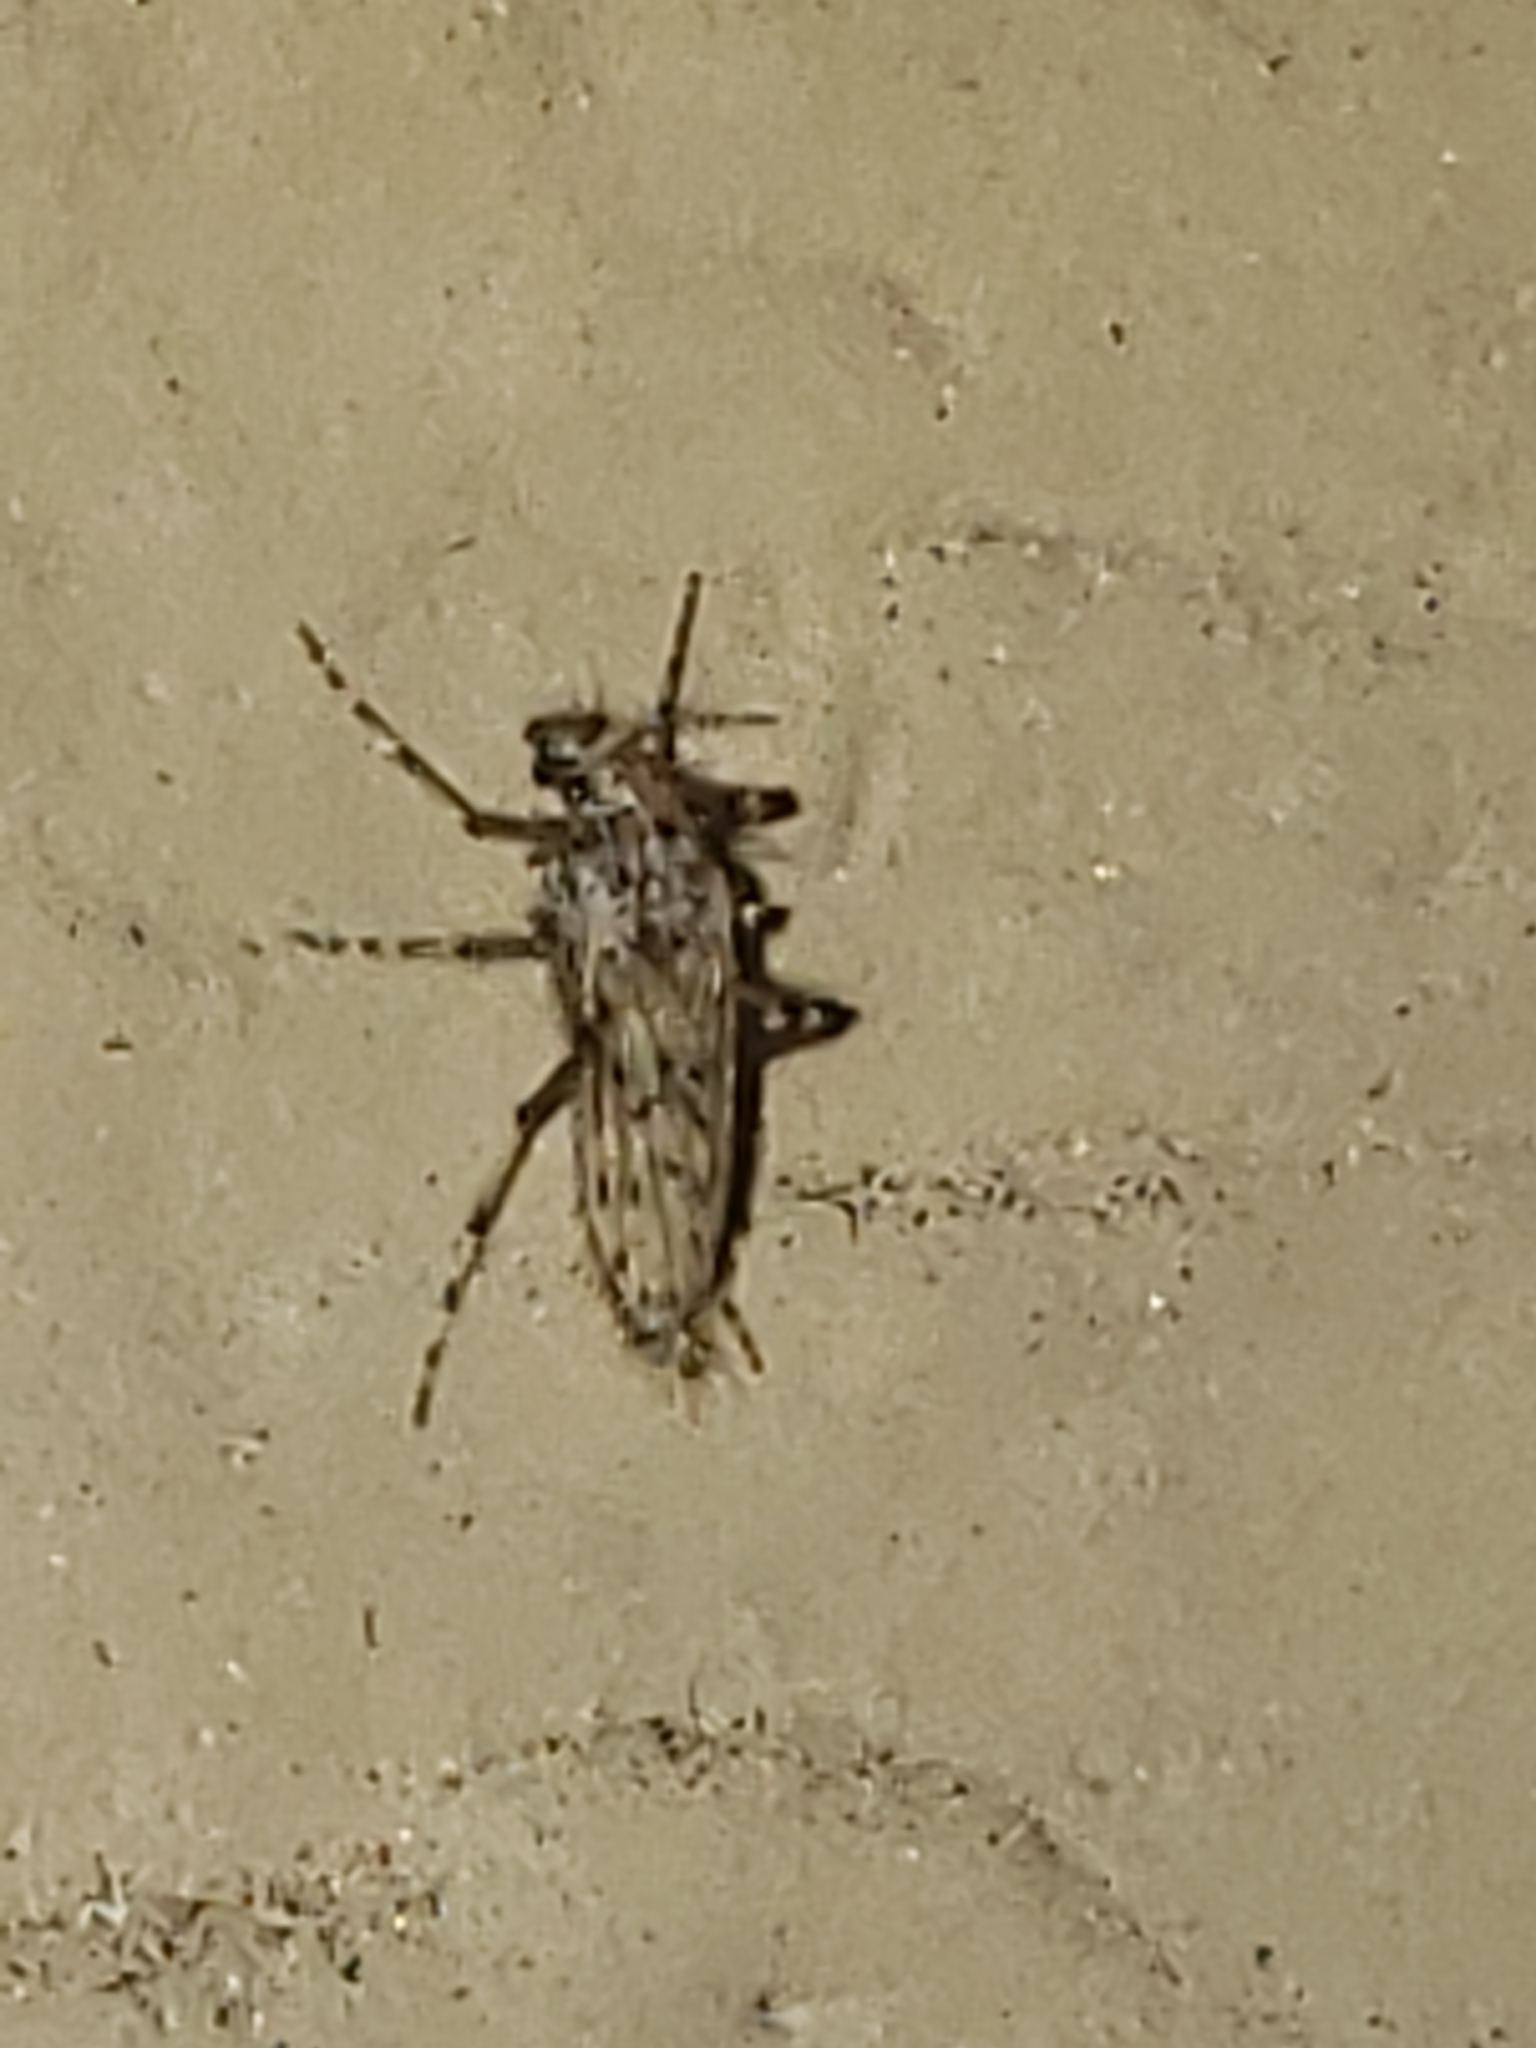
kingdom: Animalia
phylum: Arthropoda
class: Insecta
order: Diptera
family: Chaoboridae
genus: Chaoborus
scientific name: Chaoborus punctipennis
